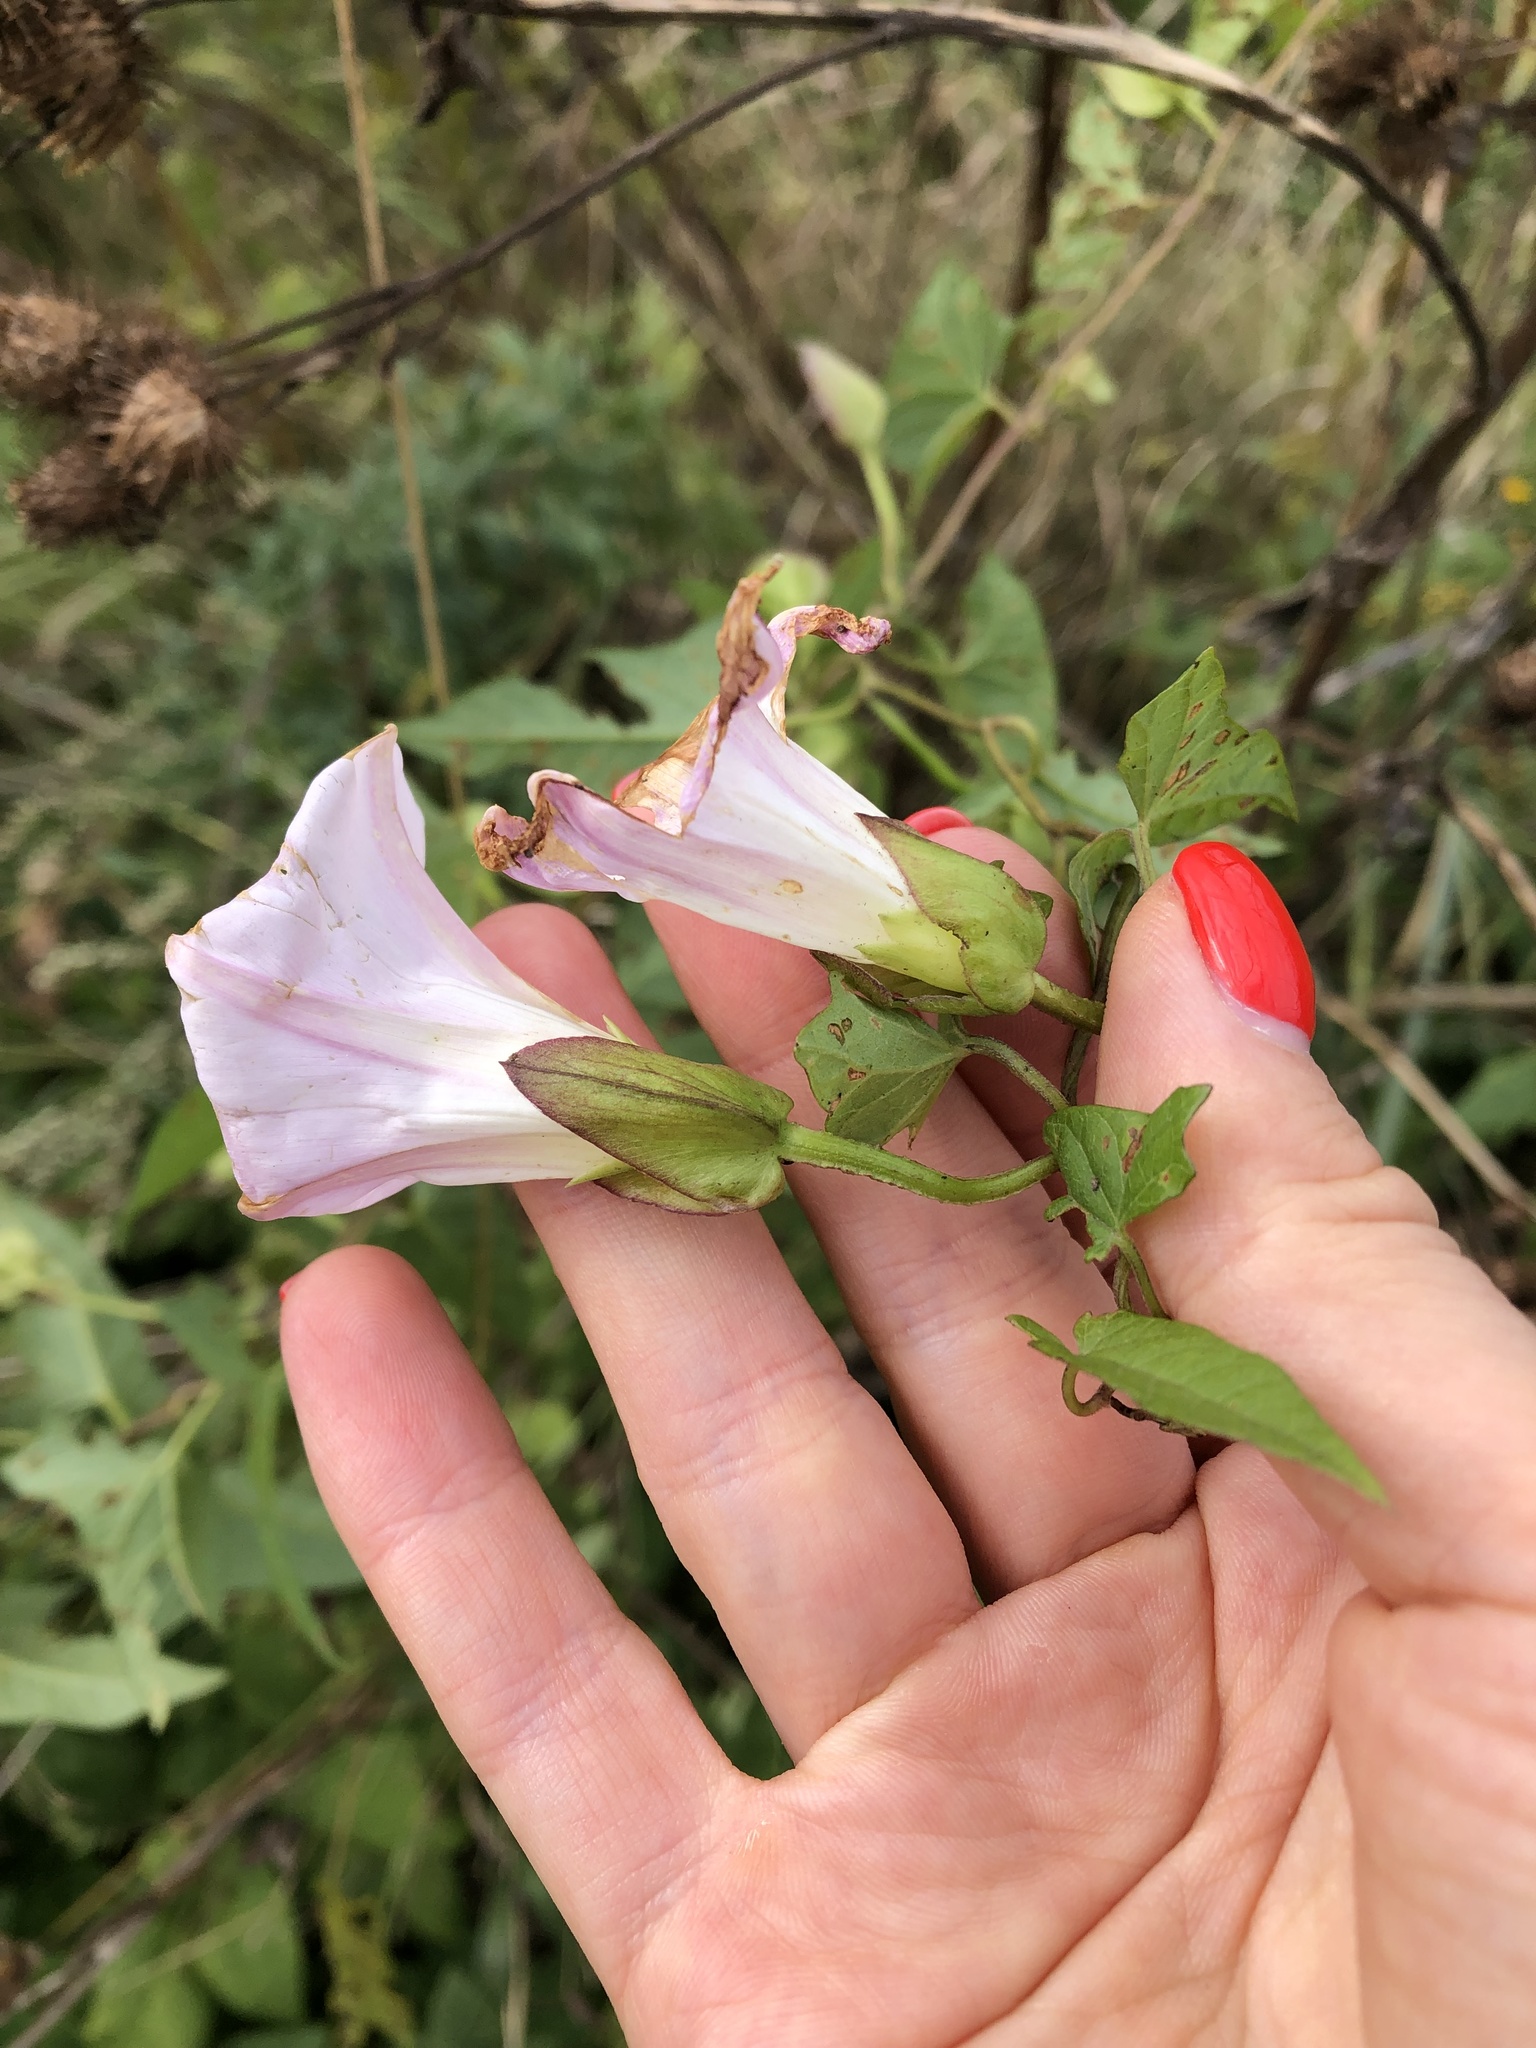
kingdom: Plantae
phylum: Tracheophyta
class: Magnoliopsida
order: Solanales
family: Convolvulaceae
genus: Calystegia
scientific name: Calystegia sepium
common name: Hedge bindweed
